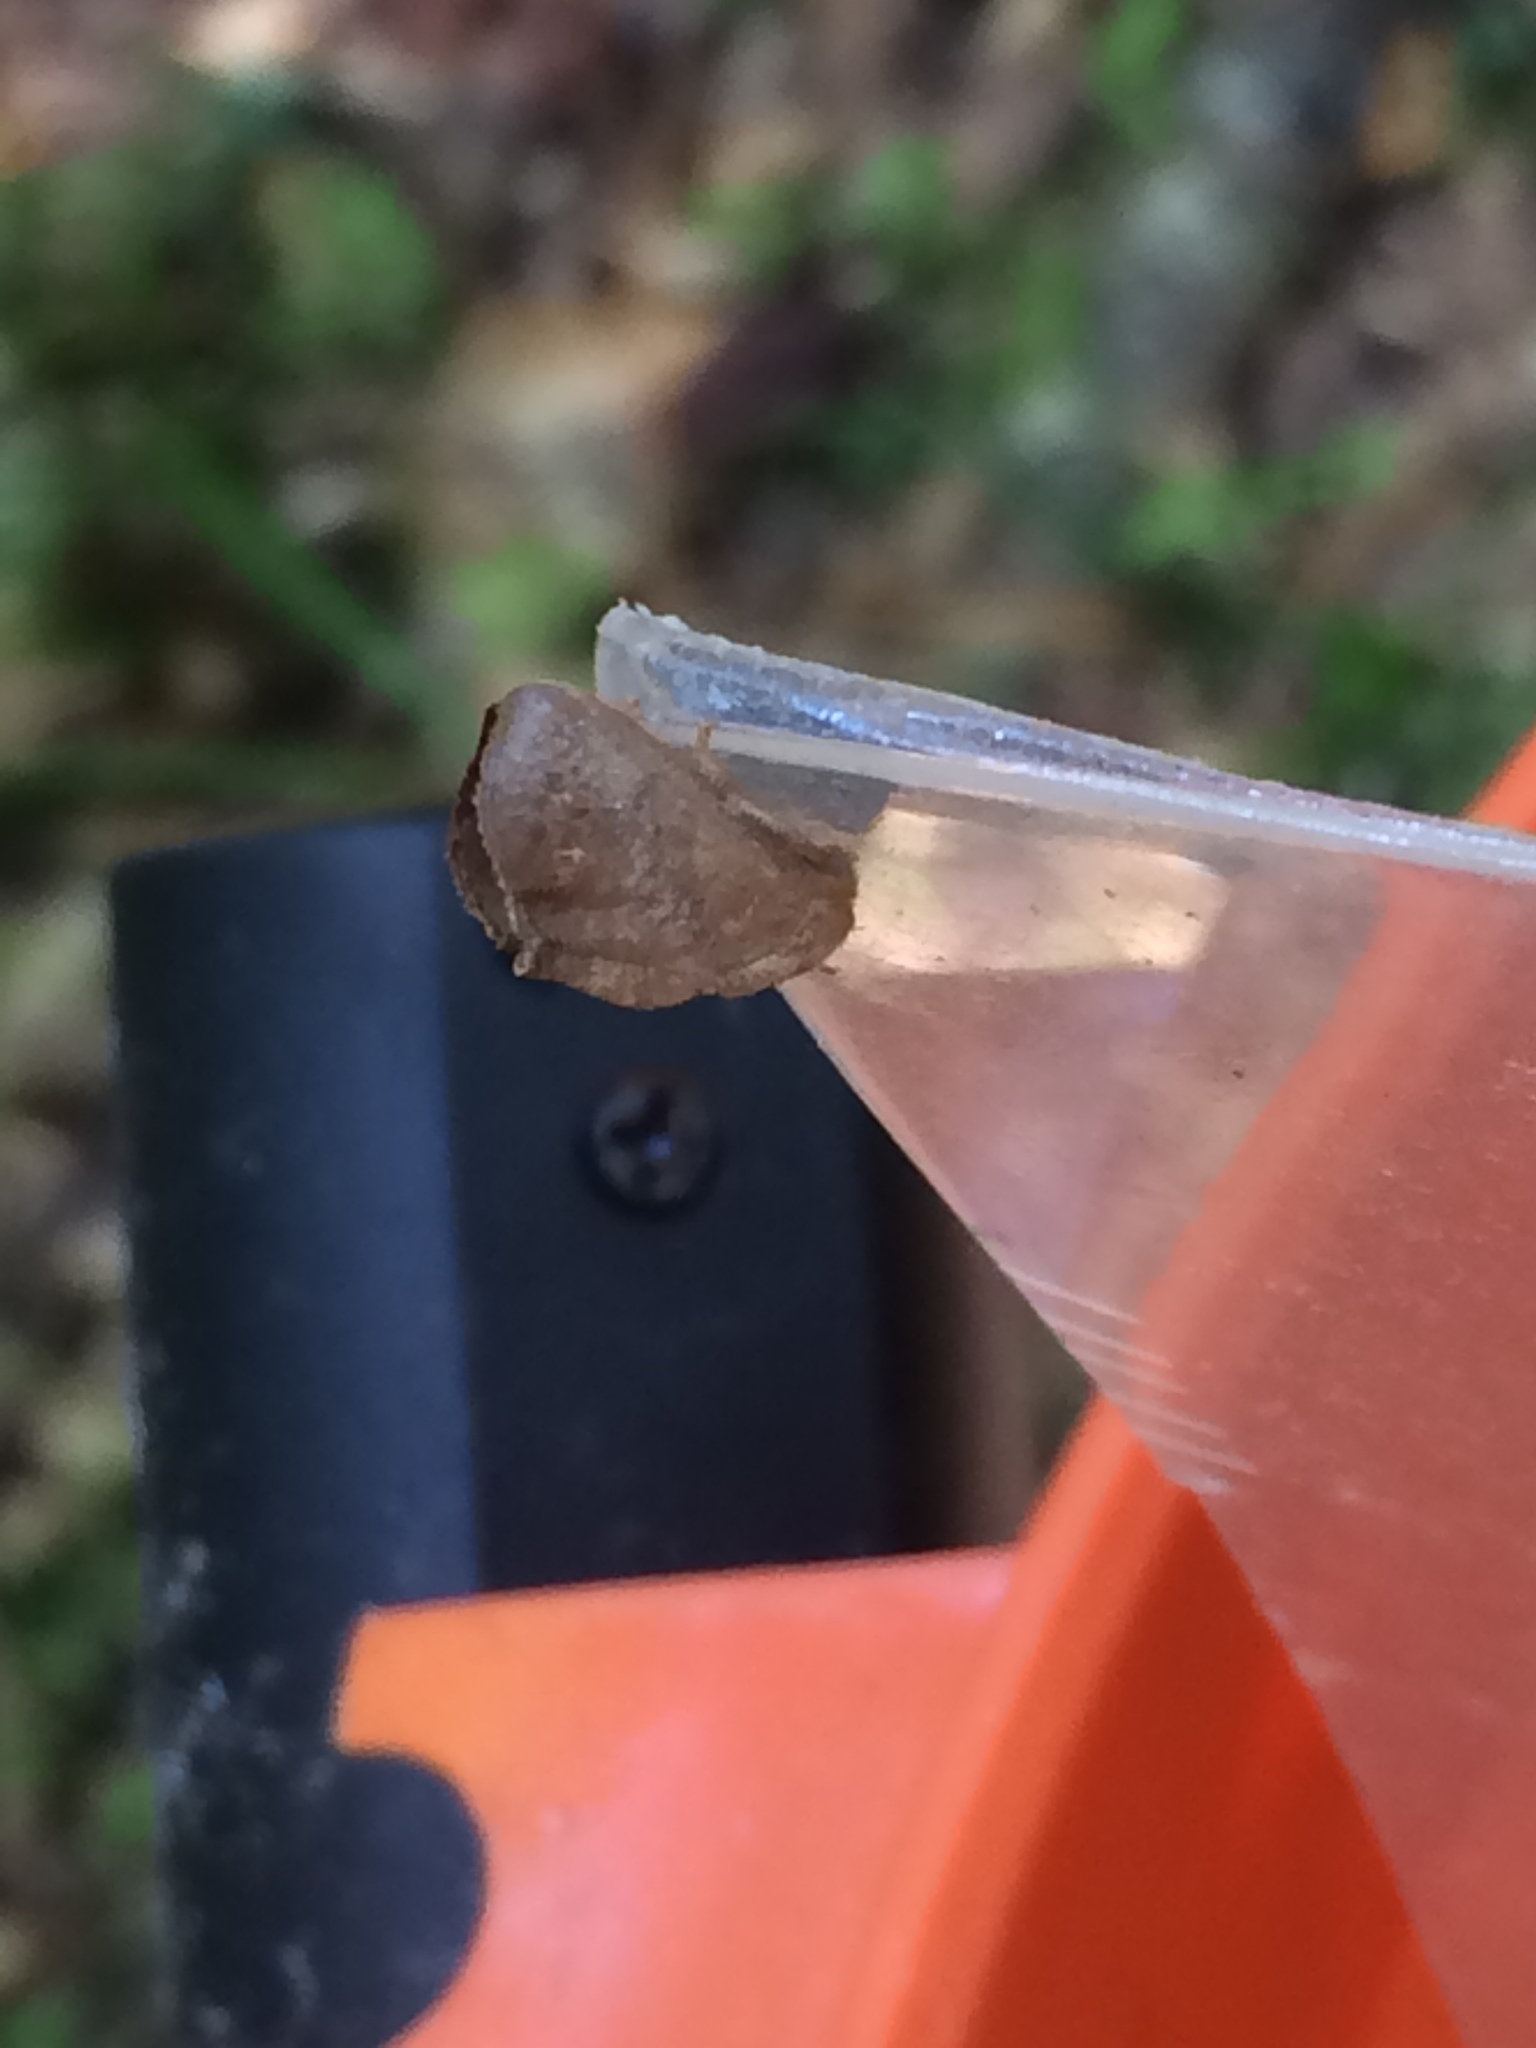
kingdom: Animalia
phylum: Arthropoda
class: Insecta
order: Lepidoptera
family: Limacodidae
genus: Isa
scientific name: Isa textula
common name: Crowned slug moth
